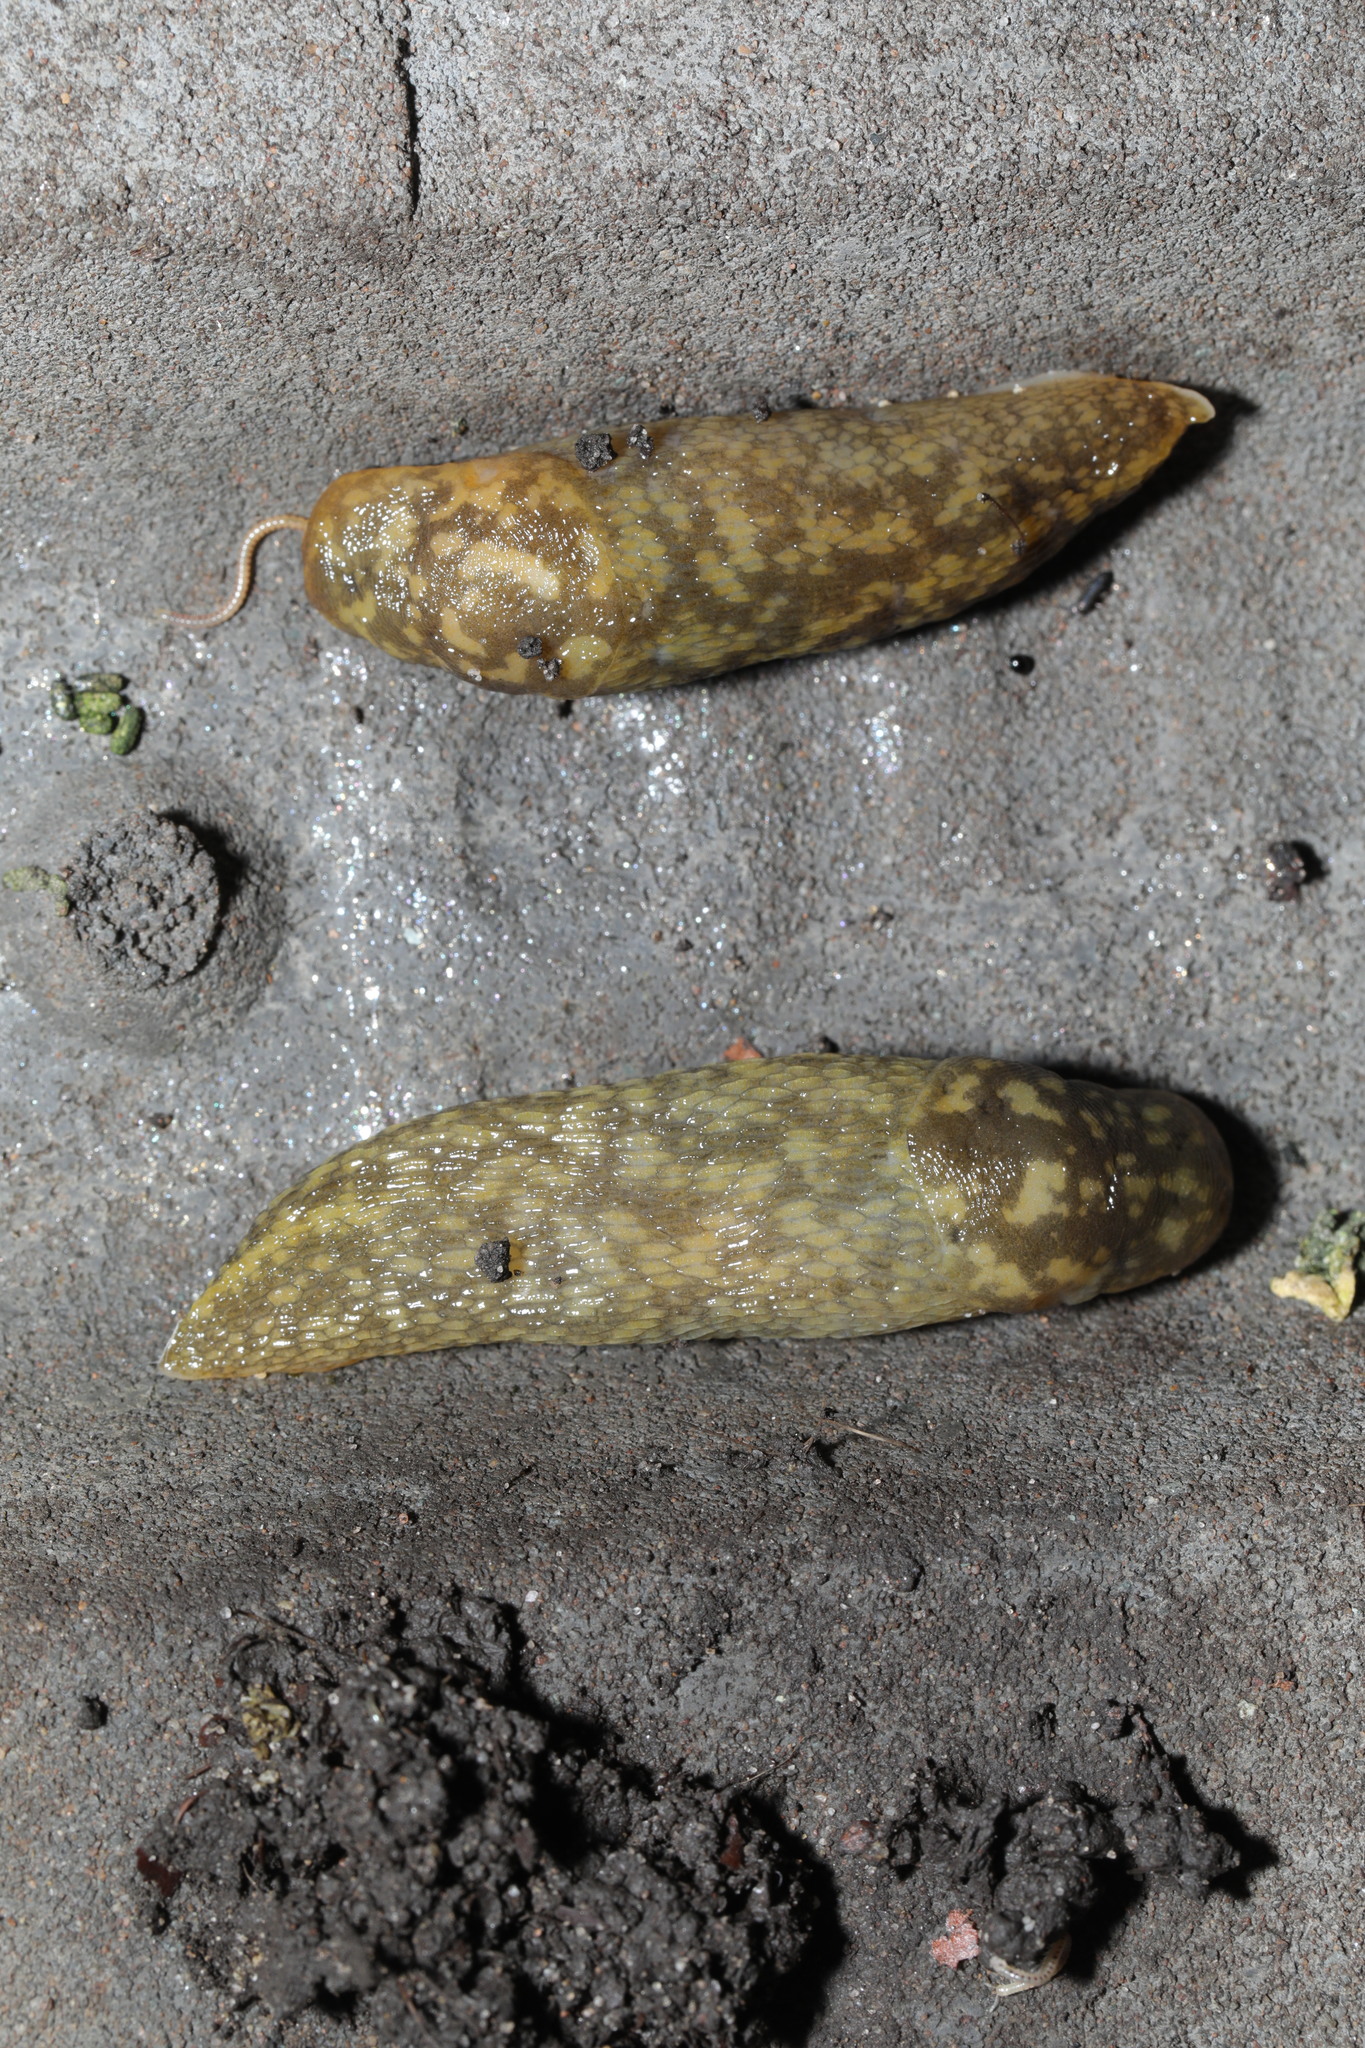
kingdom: Animalia
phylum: Mollusca
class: Gastropoda
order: Stylommatophora
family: Limacidae
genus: Limacus
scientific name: Limacus maculatus
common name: Irish yellow slug
